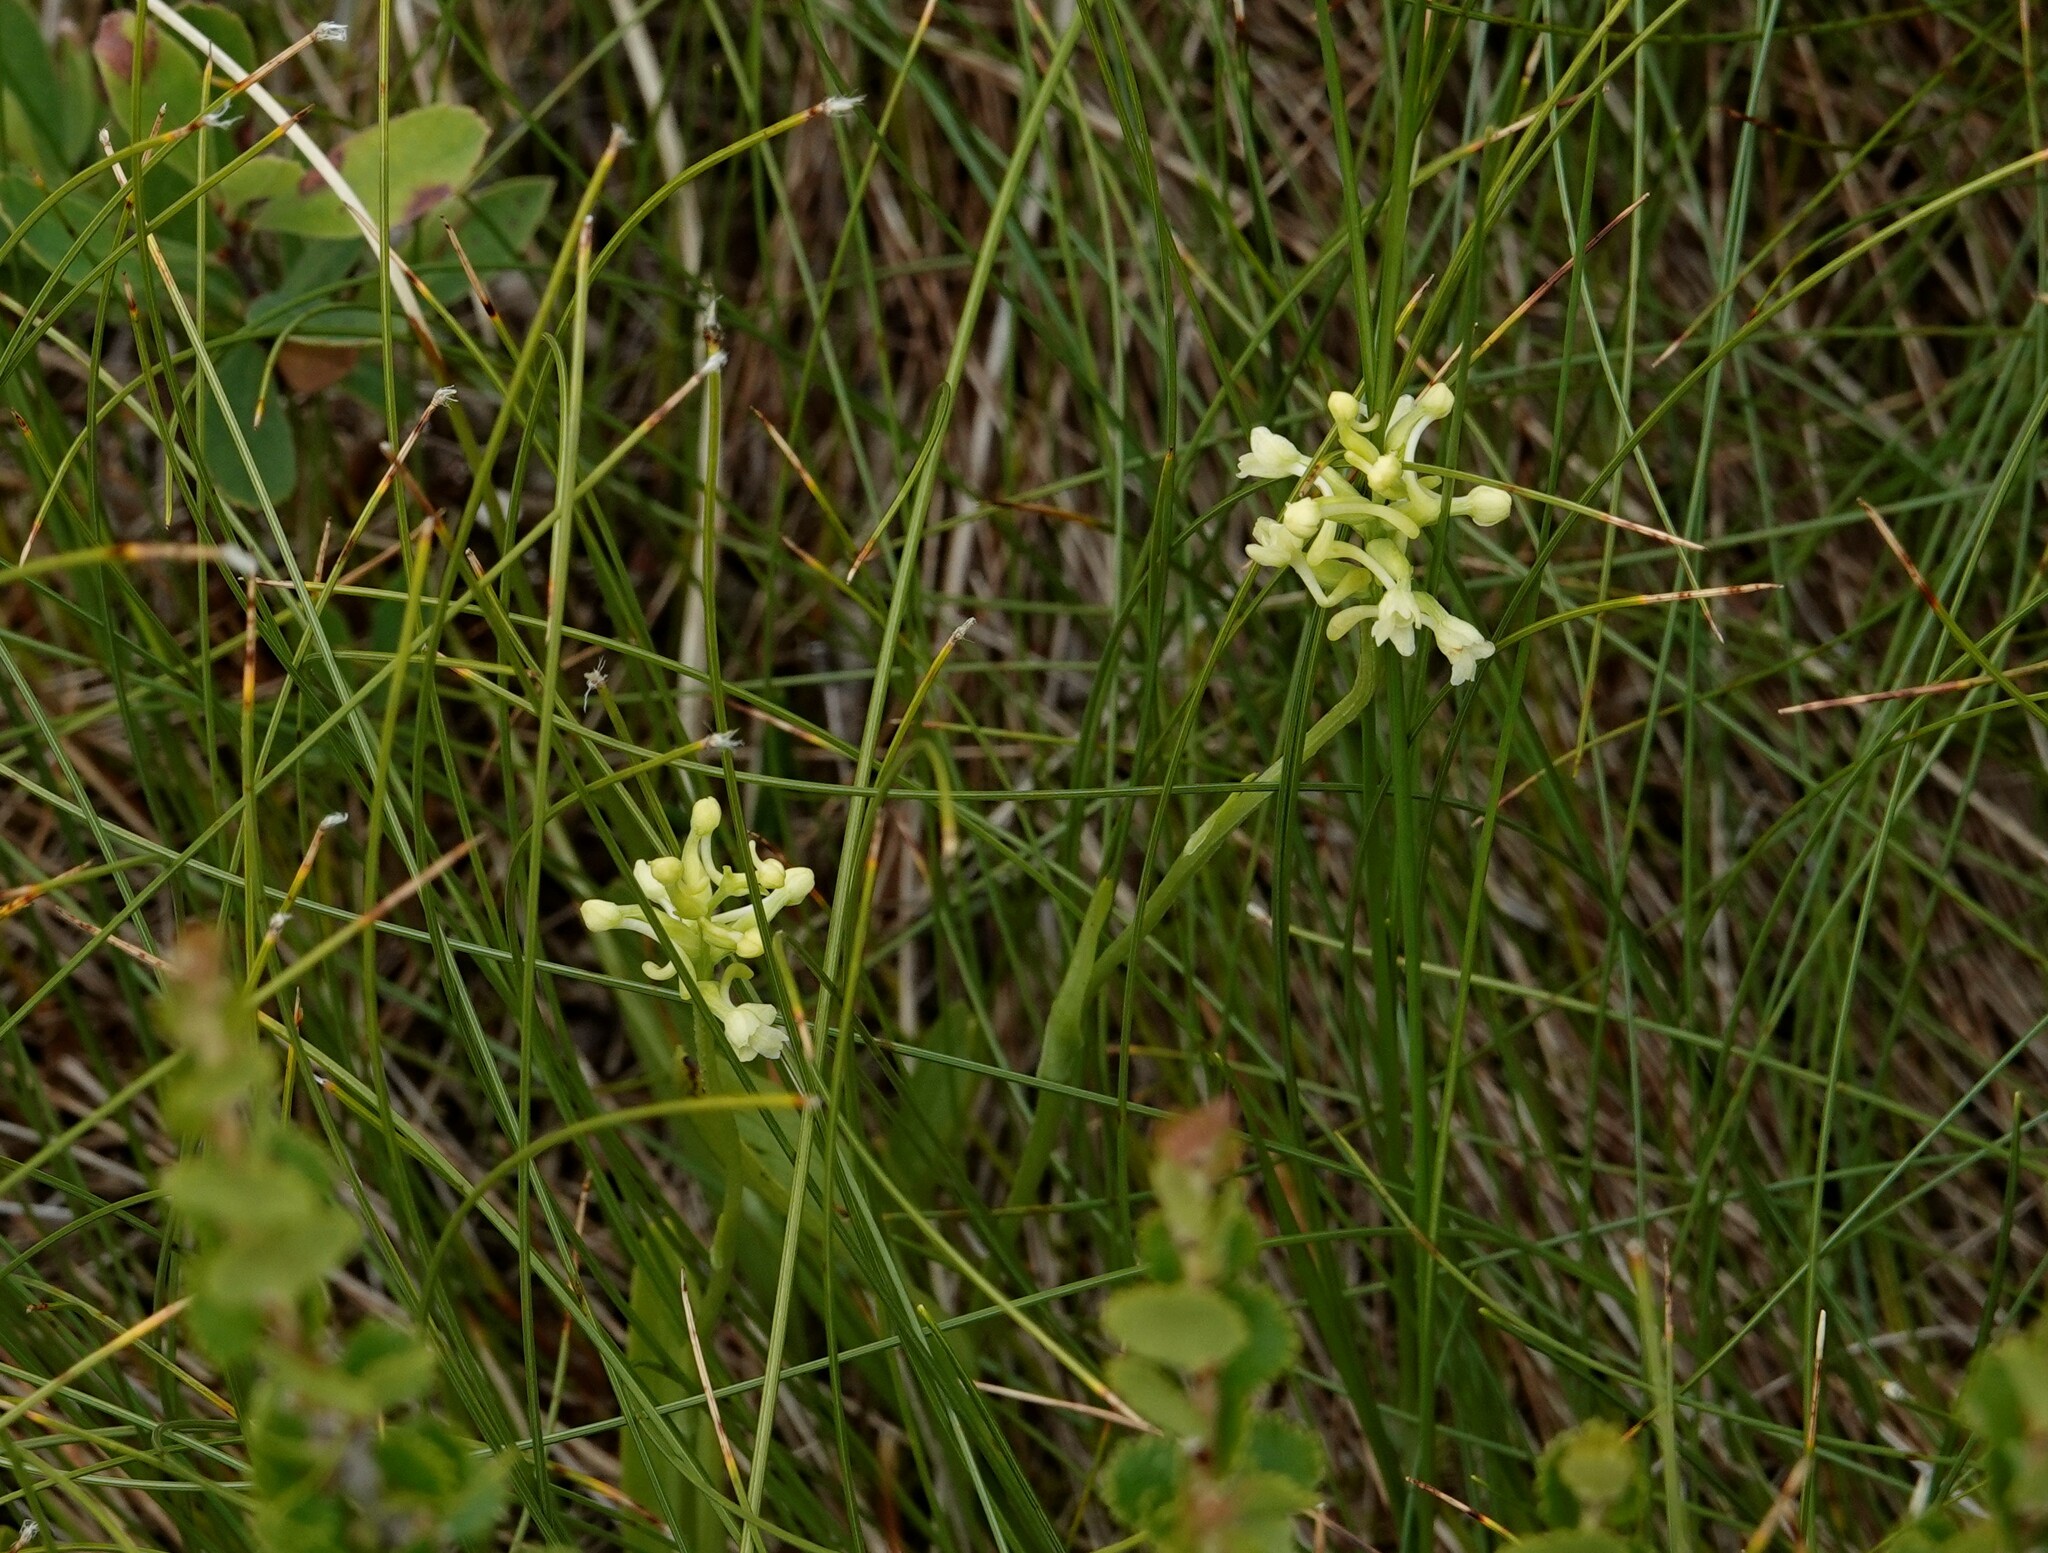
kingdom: Plantae
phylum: Tracheophyta
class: Liliopsida
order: Asparagales
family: Orchidaceae
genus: Platanthera
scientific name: Platanthera clavellata
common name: Club-spur orchid
